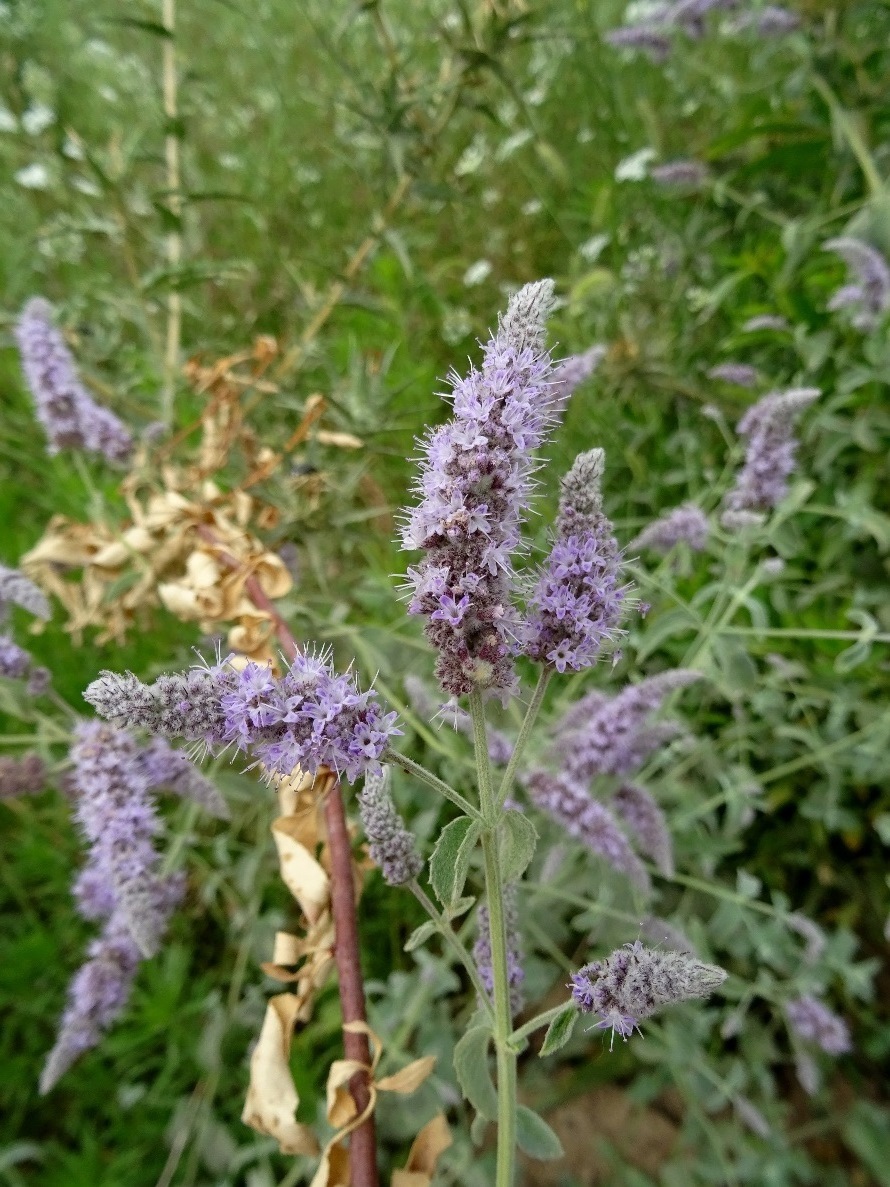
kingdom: Plantae
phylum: Tracheophyta
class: Magnoliopsida
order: Lamiales
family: Lamiaceae
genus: Mentha
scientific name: Mentha longifolia
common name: Horse mint
